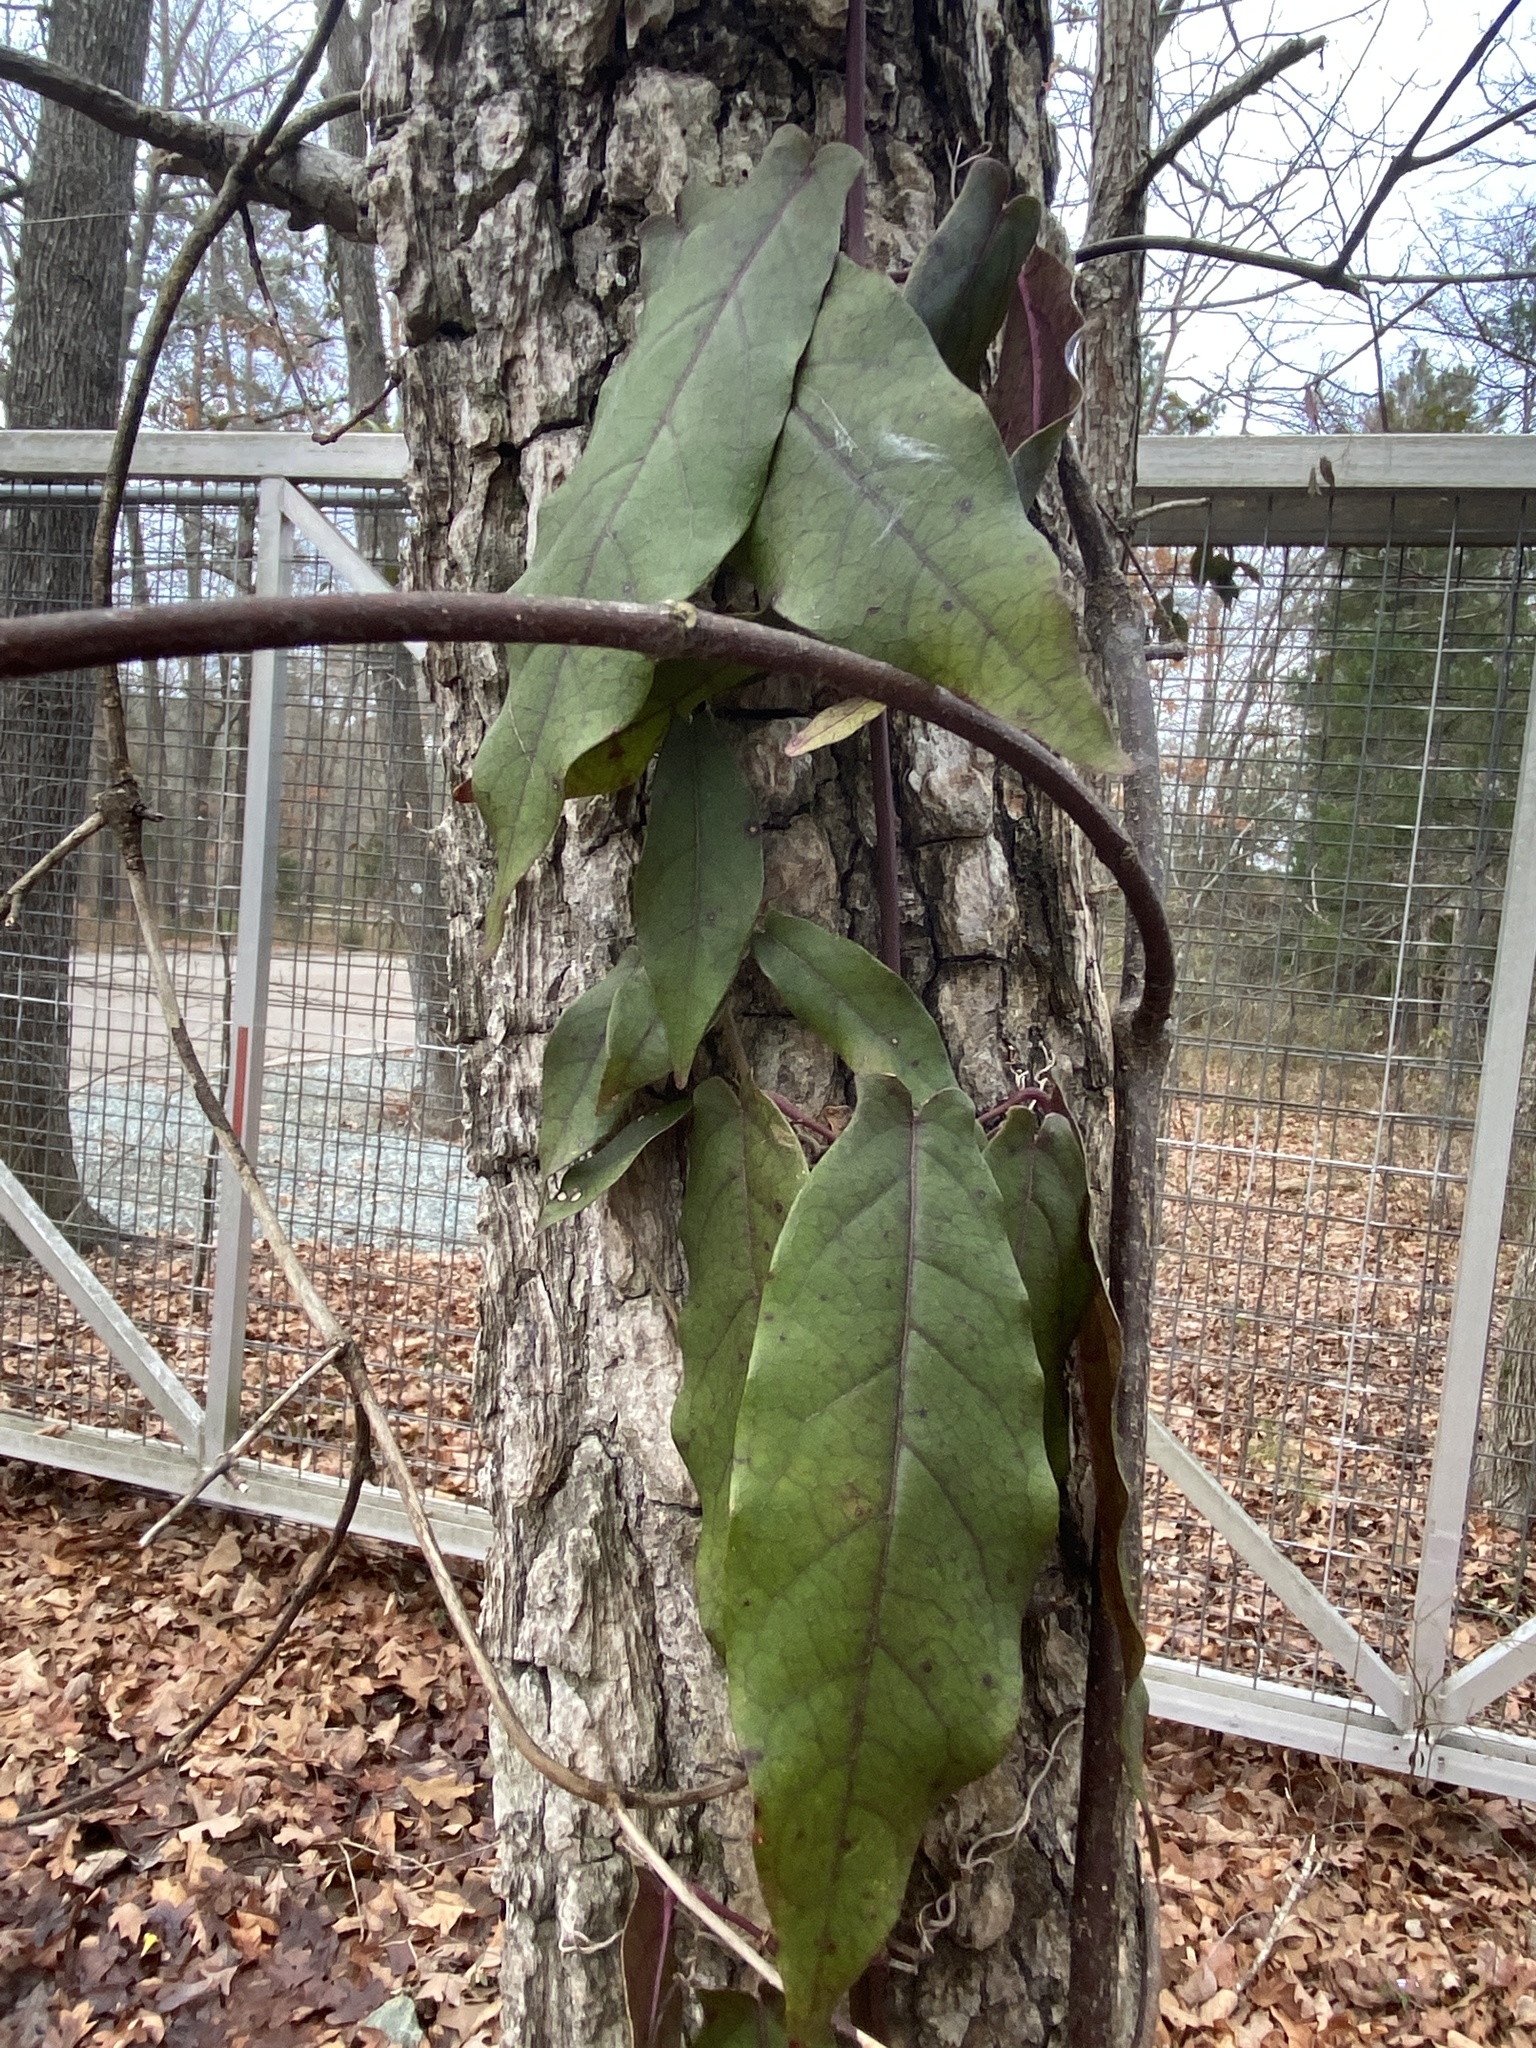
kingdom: Plantae
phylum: Tracheophyta
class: Magnoliopsida
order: Lamiales
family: Bignoniaceae
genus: Bignonia
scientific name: Bignonia capreolata
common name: Crossvine
